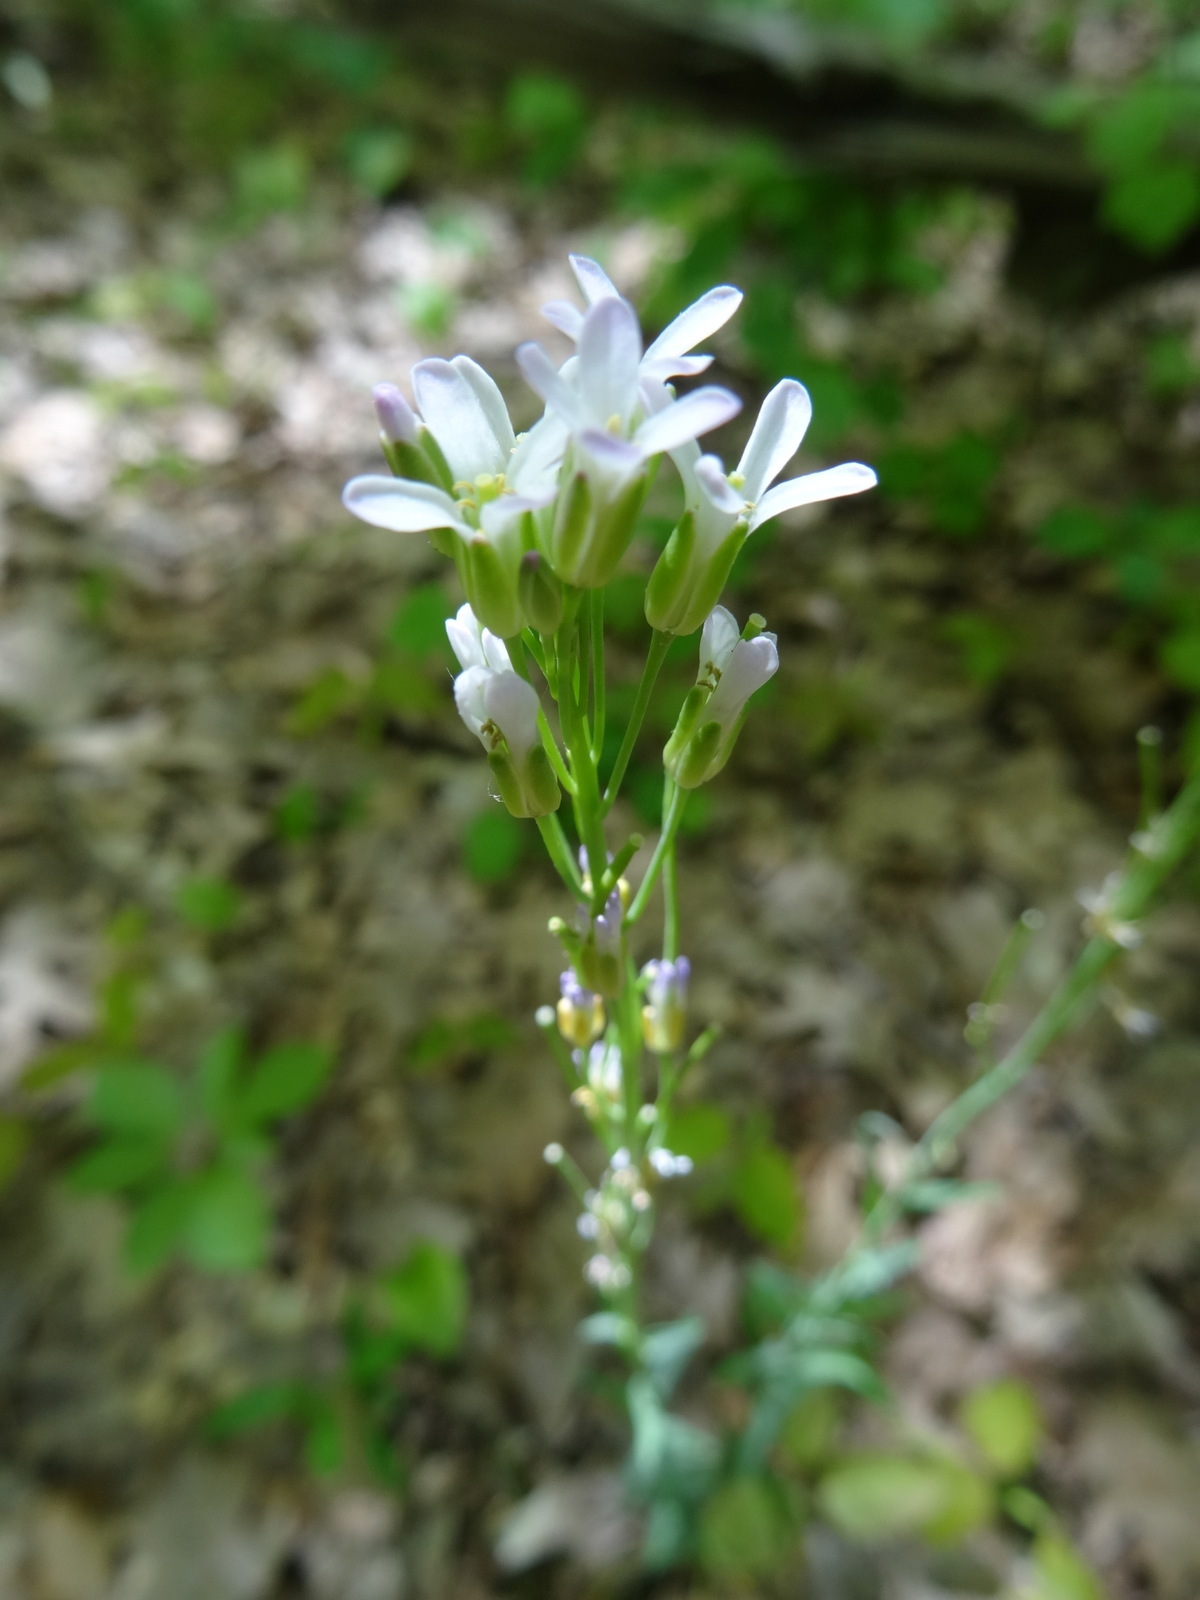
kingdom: Plantae
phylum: Tracheophyta
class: Magnoliopsida
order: Brassicales
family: Brassicaceae
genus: Turritis
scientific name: Turritis glabra
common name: Tower rockcress
